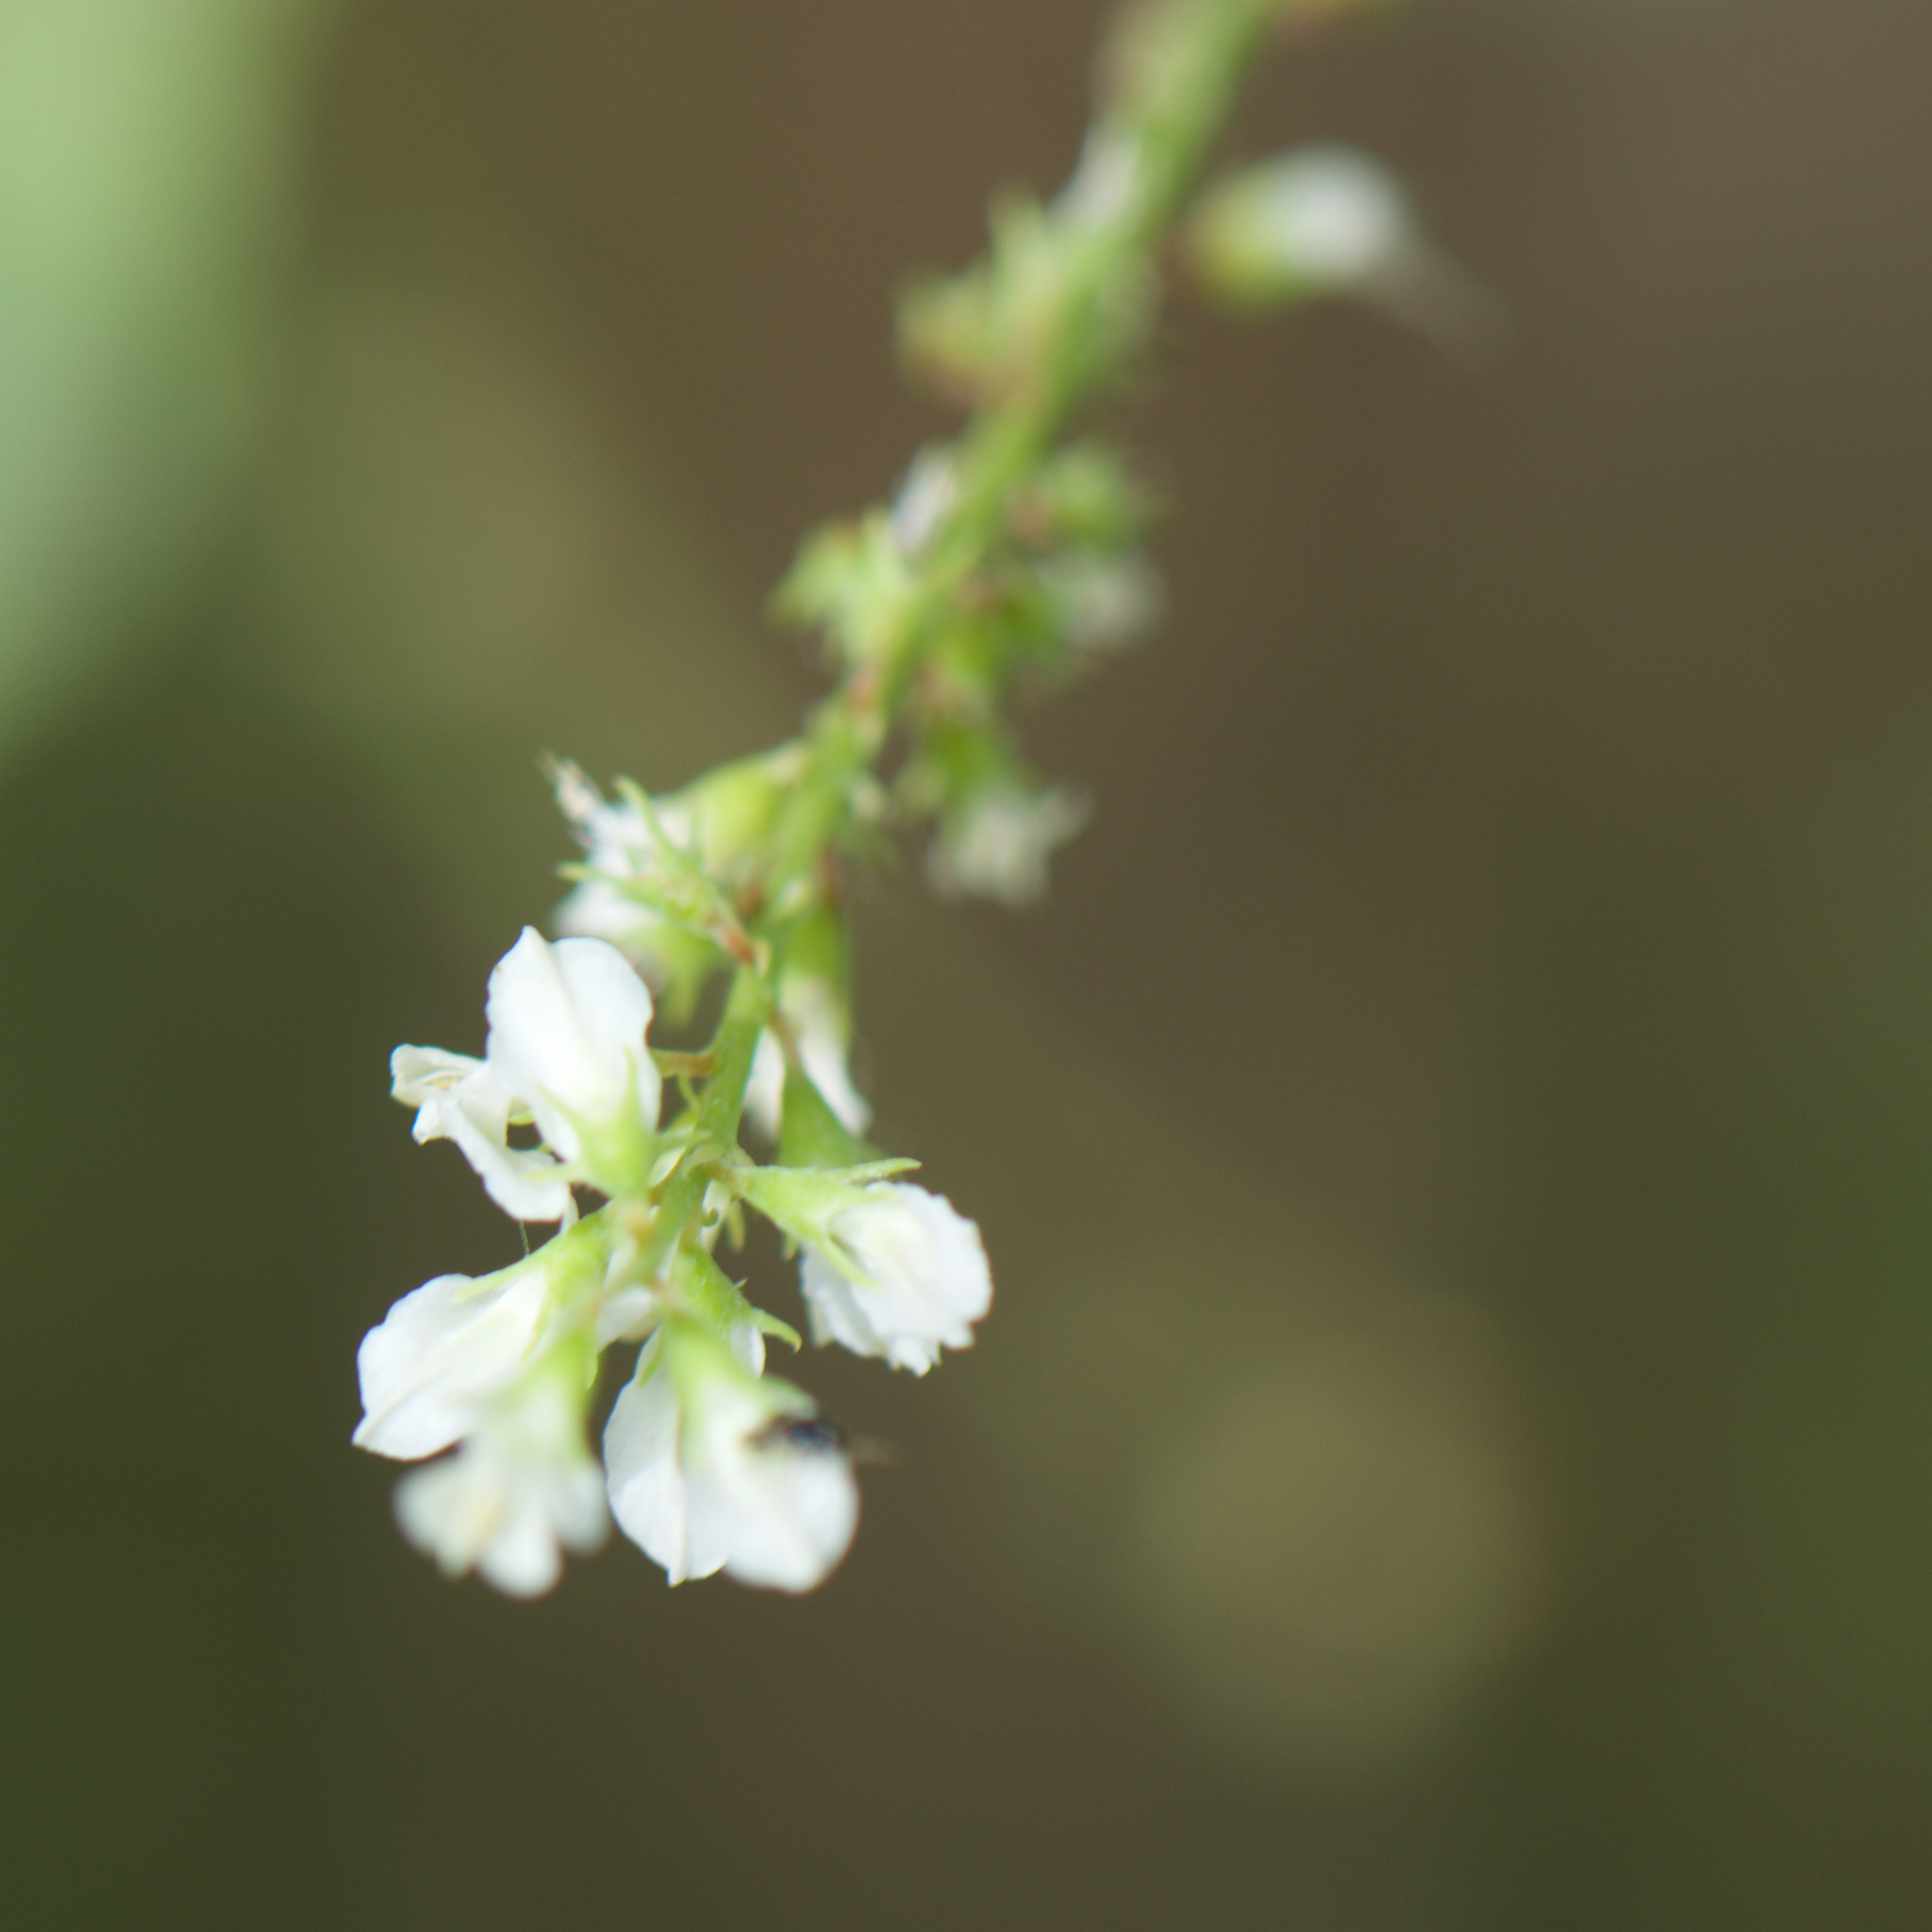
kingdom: Plantae
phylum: Tracheophyta
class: Magnoliopsida
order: Fabales
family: Fabaceae
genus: Melilotus
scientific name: Melilotus albus
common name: White melilot
